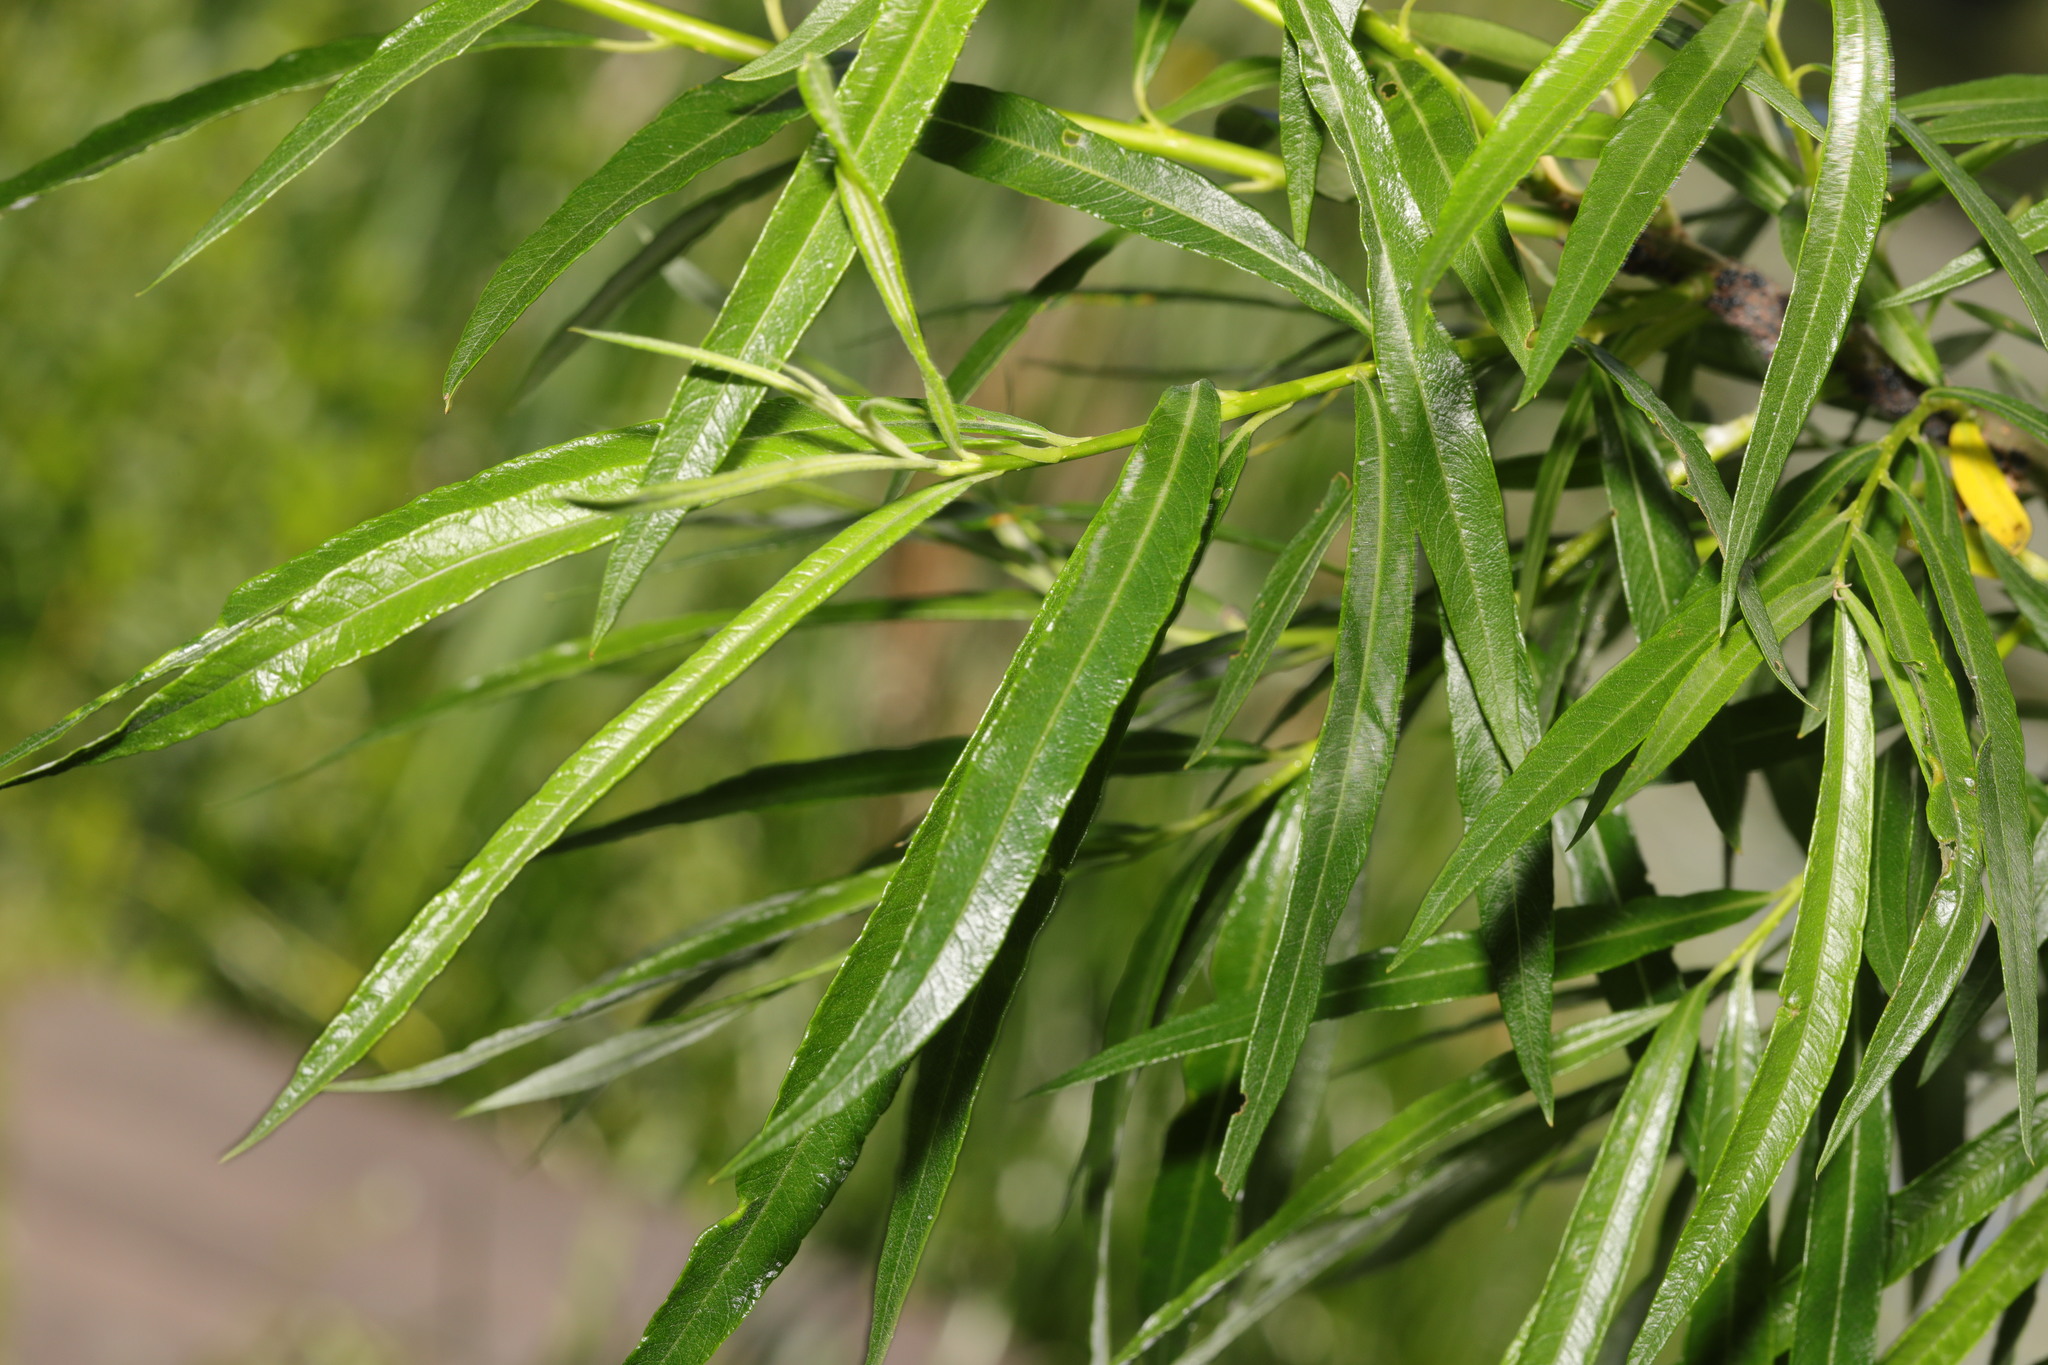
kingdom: Plantae
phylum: Tracheophyta
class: Magnoliopsida
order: Malpighiales
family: Salicaceae
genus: Salix
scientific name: Salix viminalis
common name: Osier
